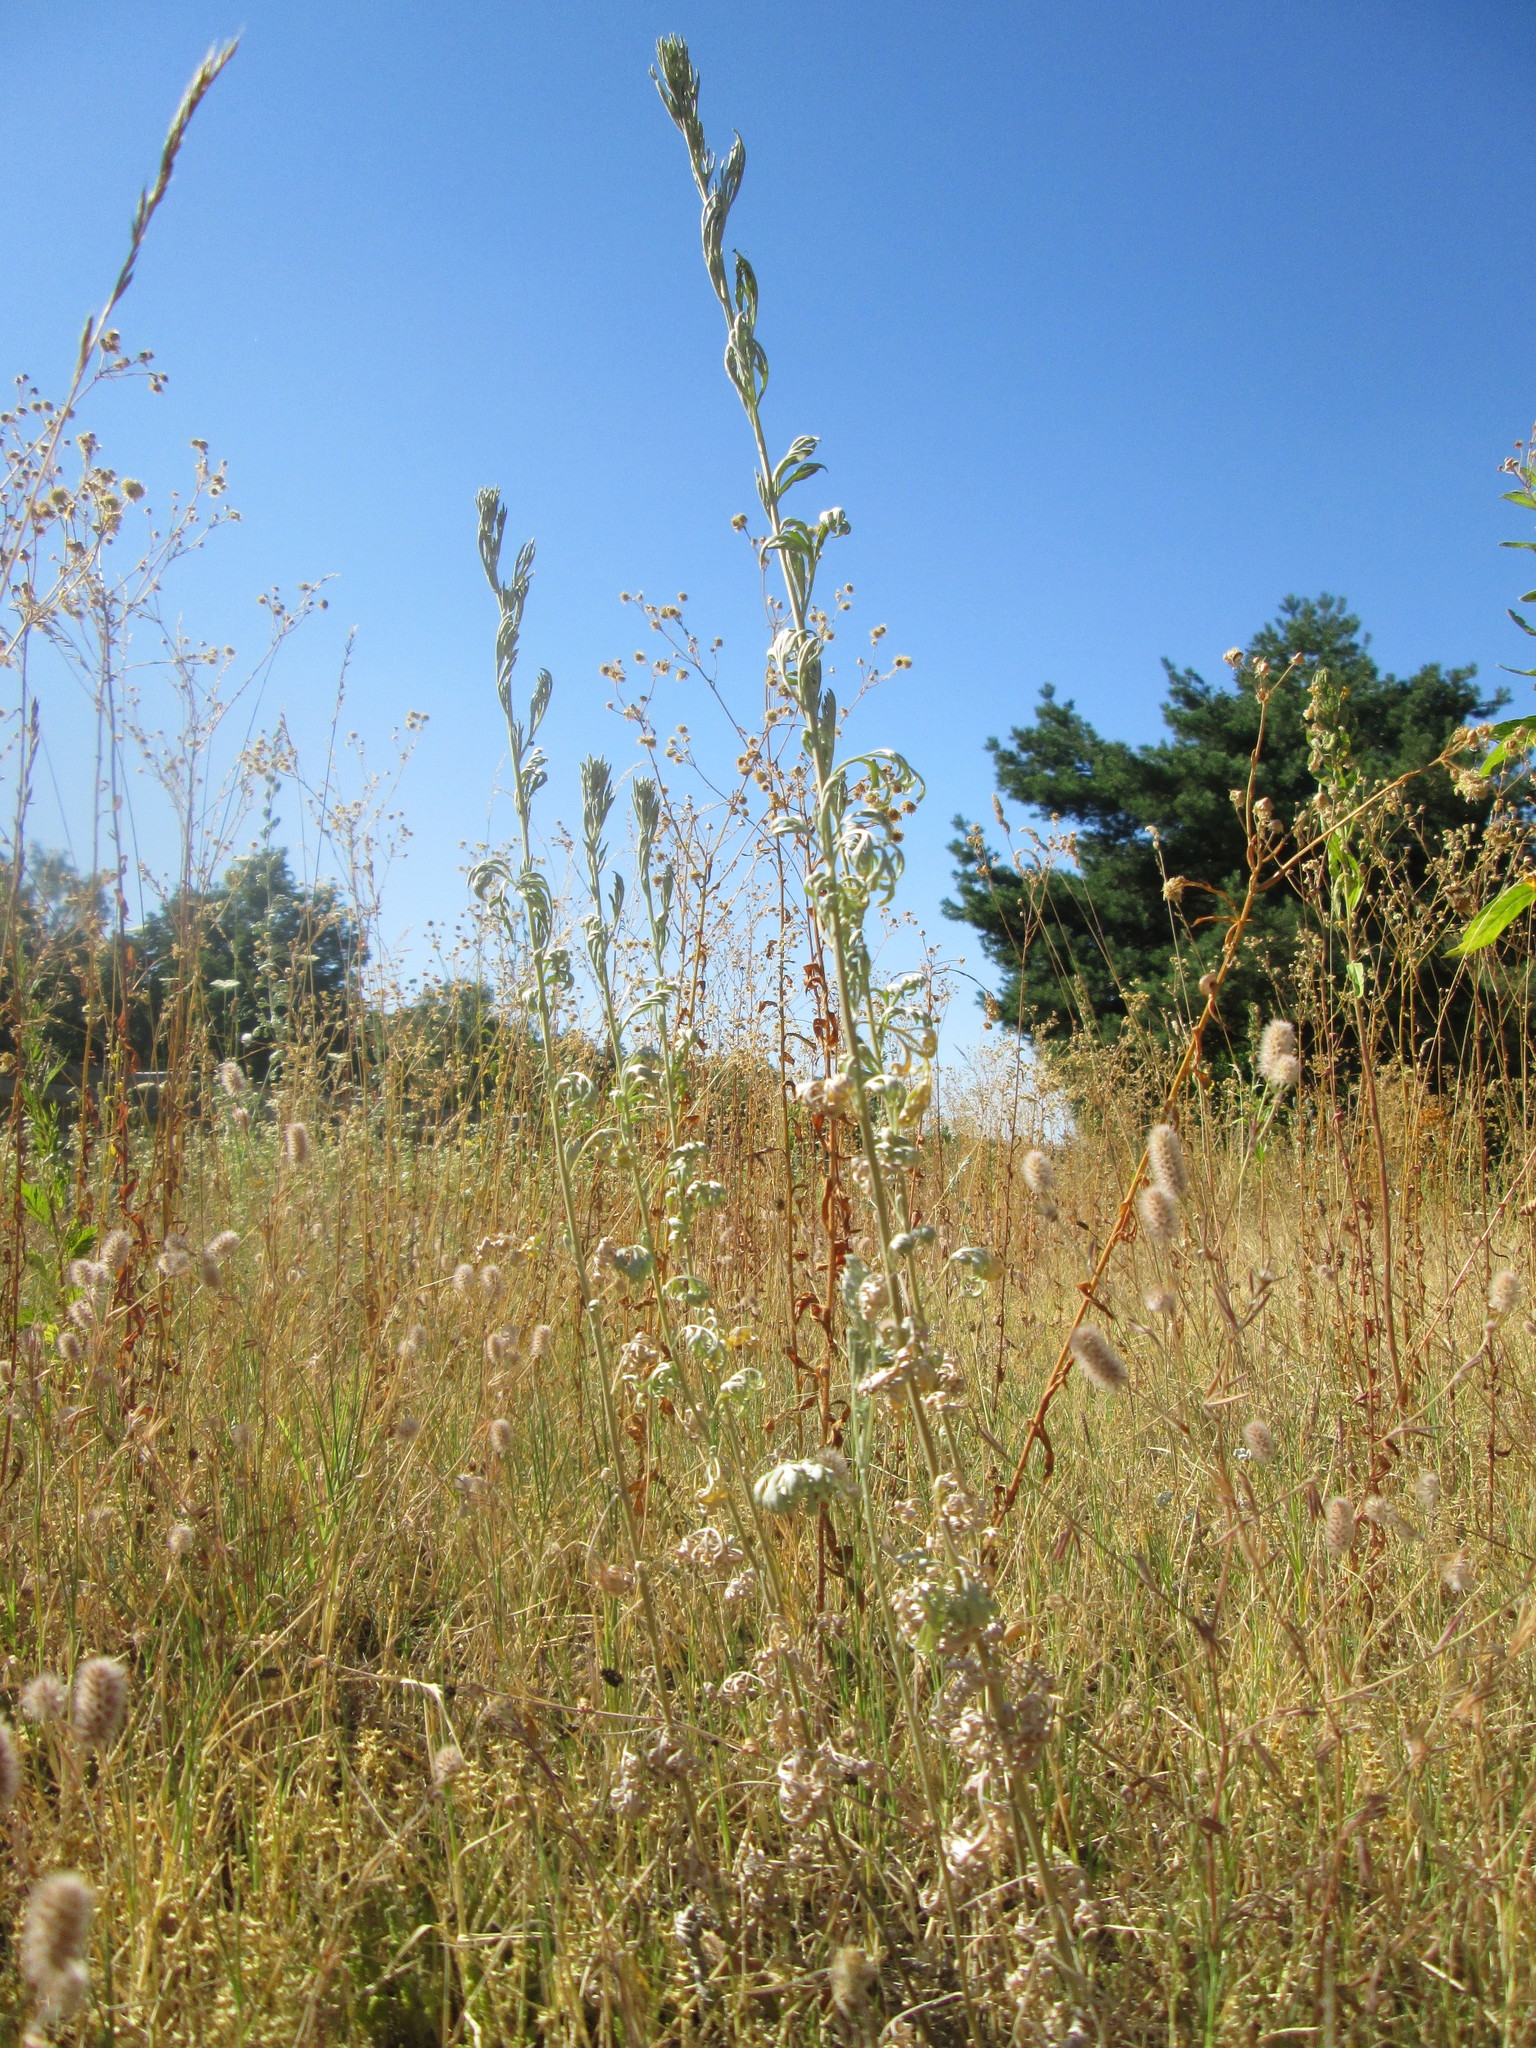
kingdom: Plantae
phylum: Tracheophyta
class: Magnoliopsida
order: Asterales
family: Asteraceae
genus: Artemisia
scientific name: Artemisia absinthium
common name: Wormwood
